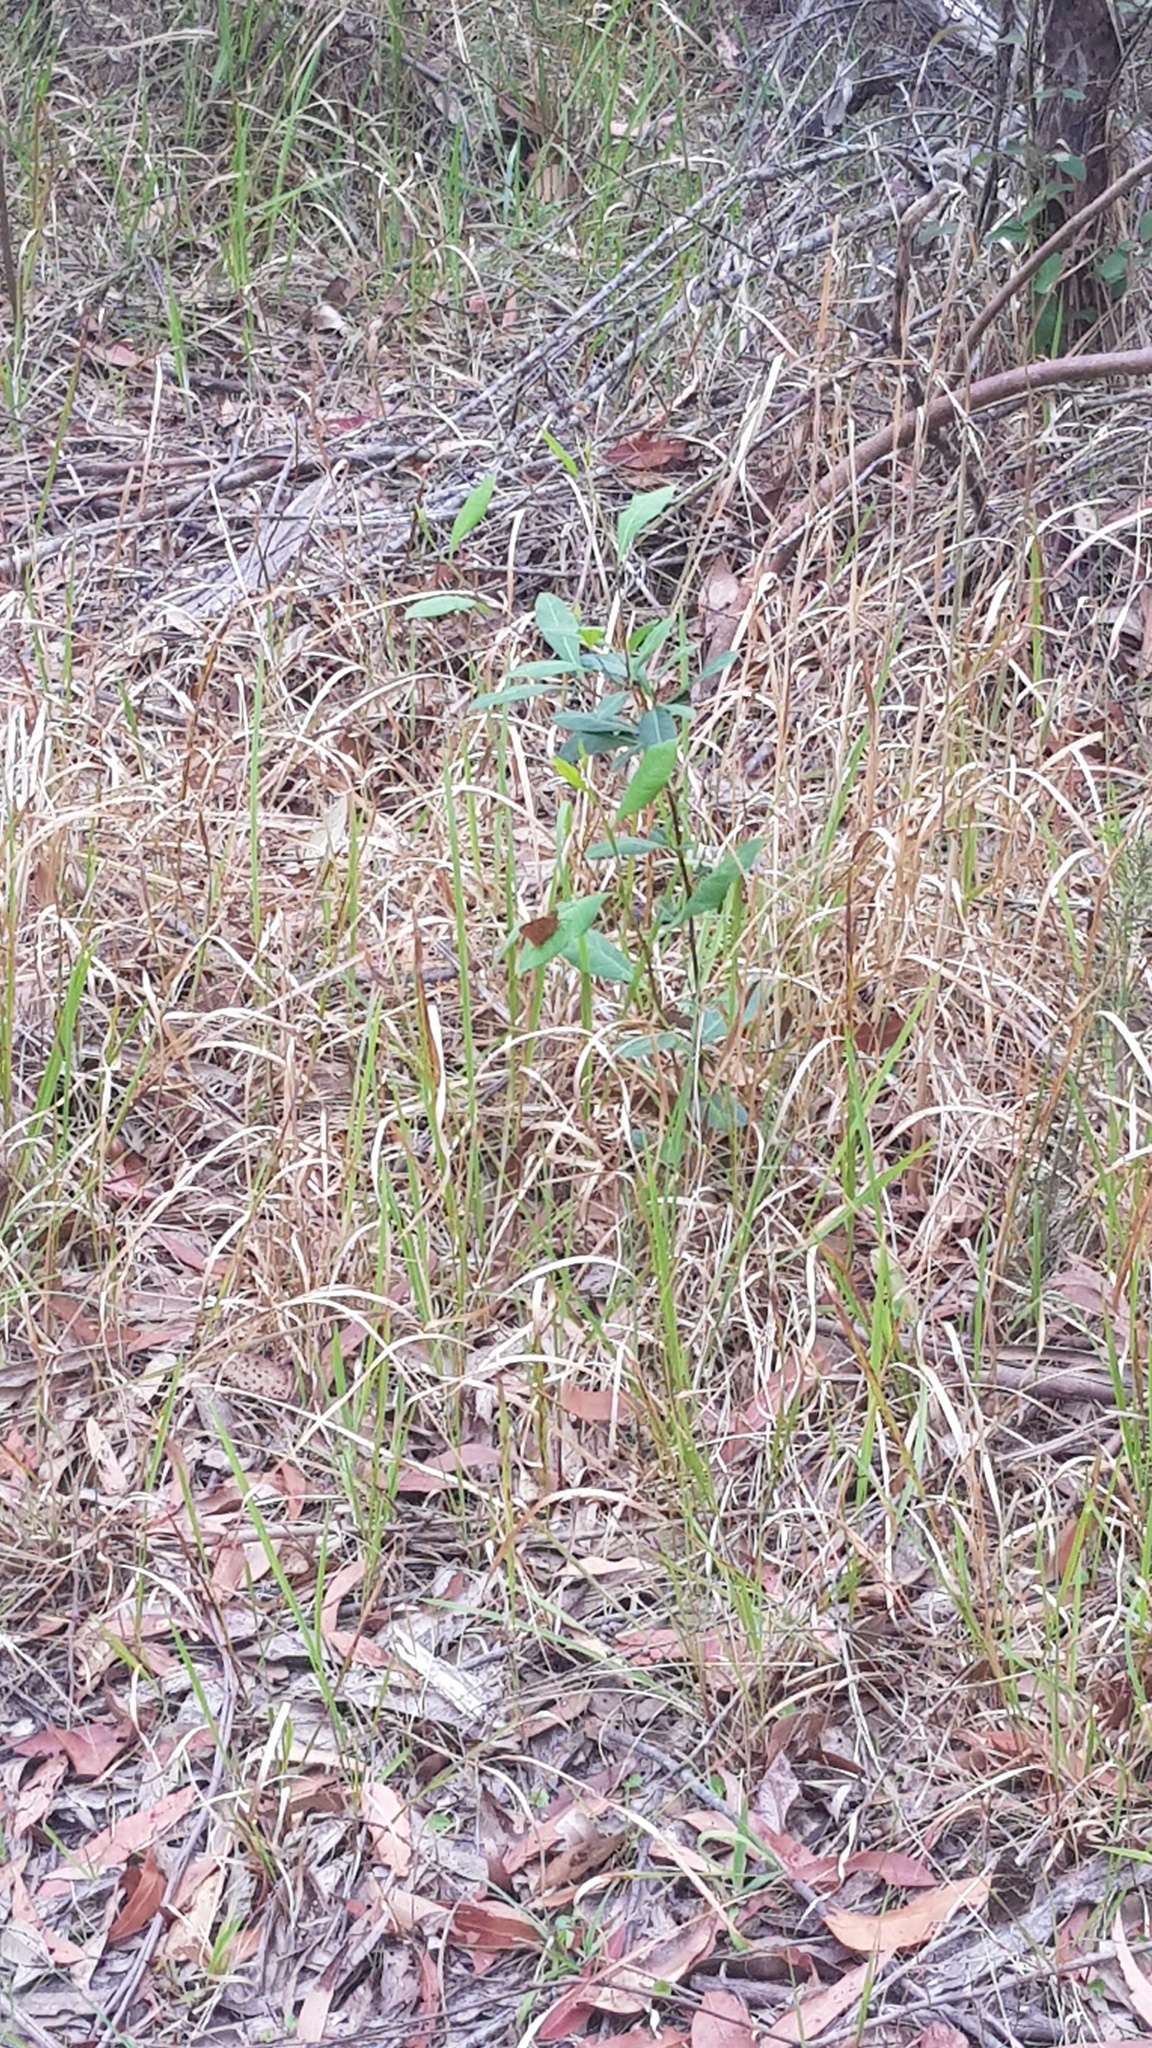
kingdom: Animalia
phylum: Arthropoda
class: Insecta
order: Lepidoptera
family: Hesperiidae
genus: Trapezites
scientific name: Trapezites symmomus
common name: Splendid ochre
